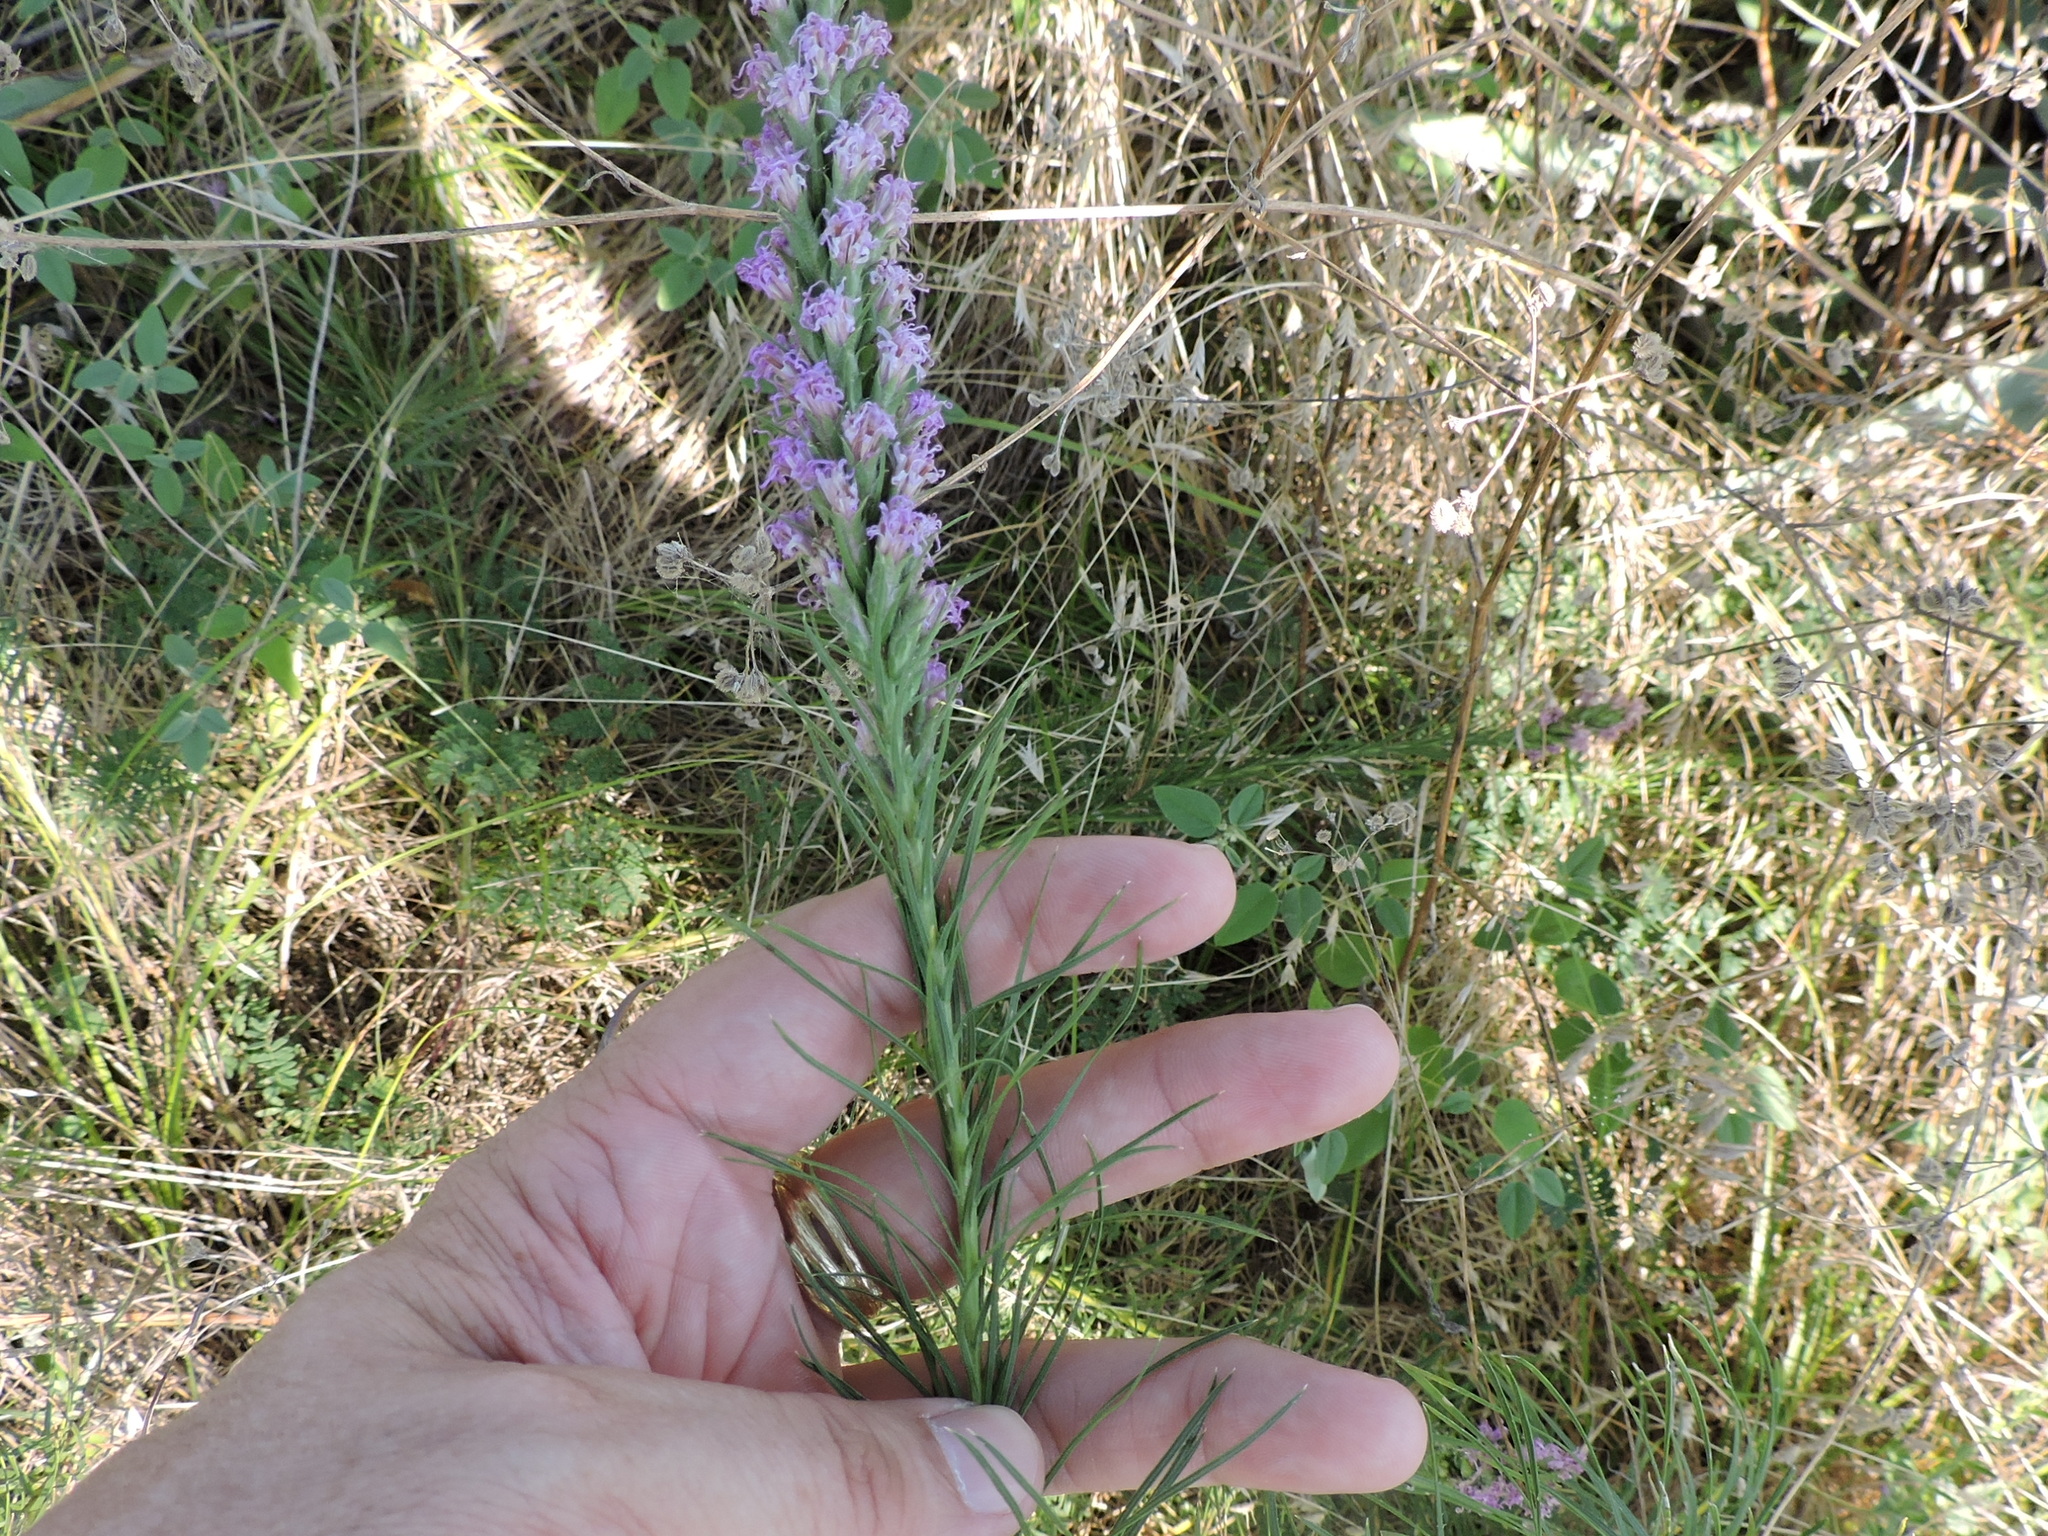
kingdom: Plantae
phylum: Tracheophyta
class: Magnoliopsida
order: Asterales
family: Asteraceae
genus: Liatris
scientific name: Liatris aestivalis
